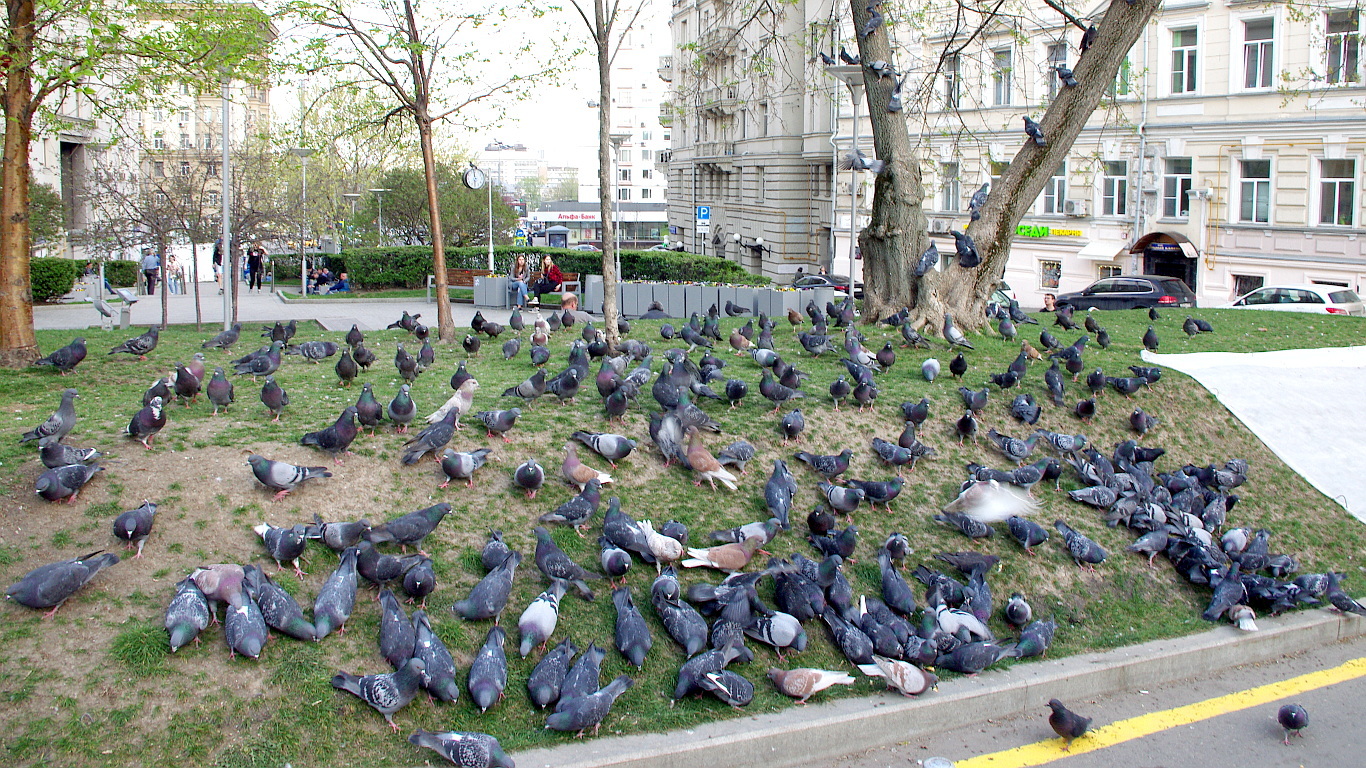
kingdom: Animalia
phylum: Chordata
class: Aves
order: Columbiformes
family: Columbidae
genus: Columba
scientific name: Columba livia
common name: Rock pigeon
